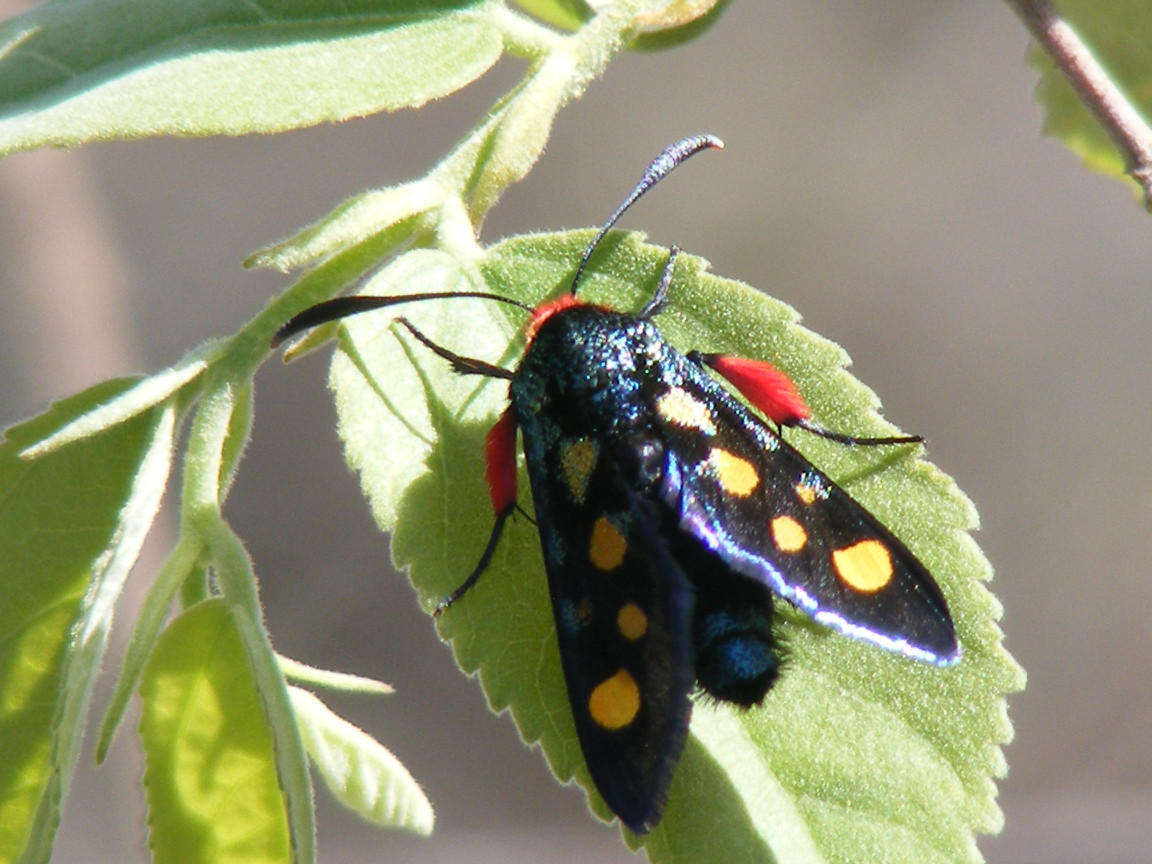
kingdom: Animalia
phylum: Arthropoda
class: Insecta
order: Lepidoptera
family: Thyrididae
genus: Arniocera
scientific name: Arniocera auriguttata
